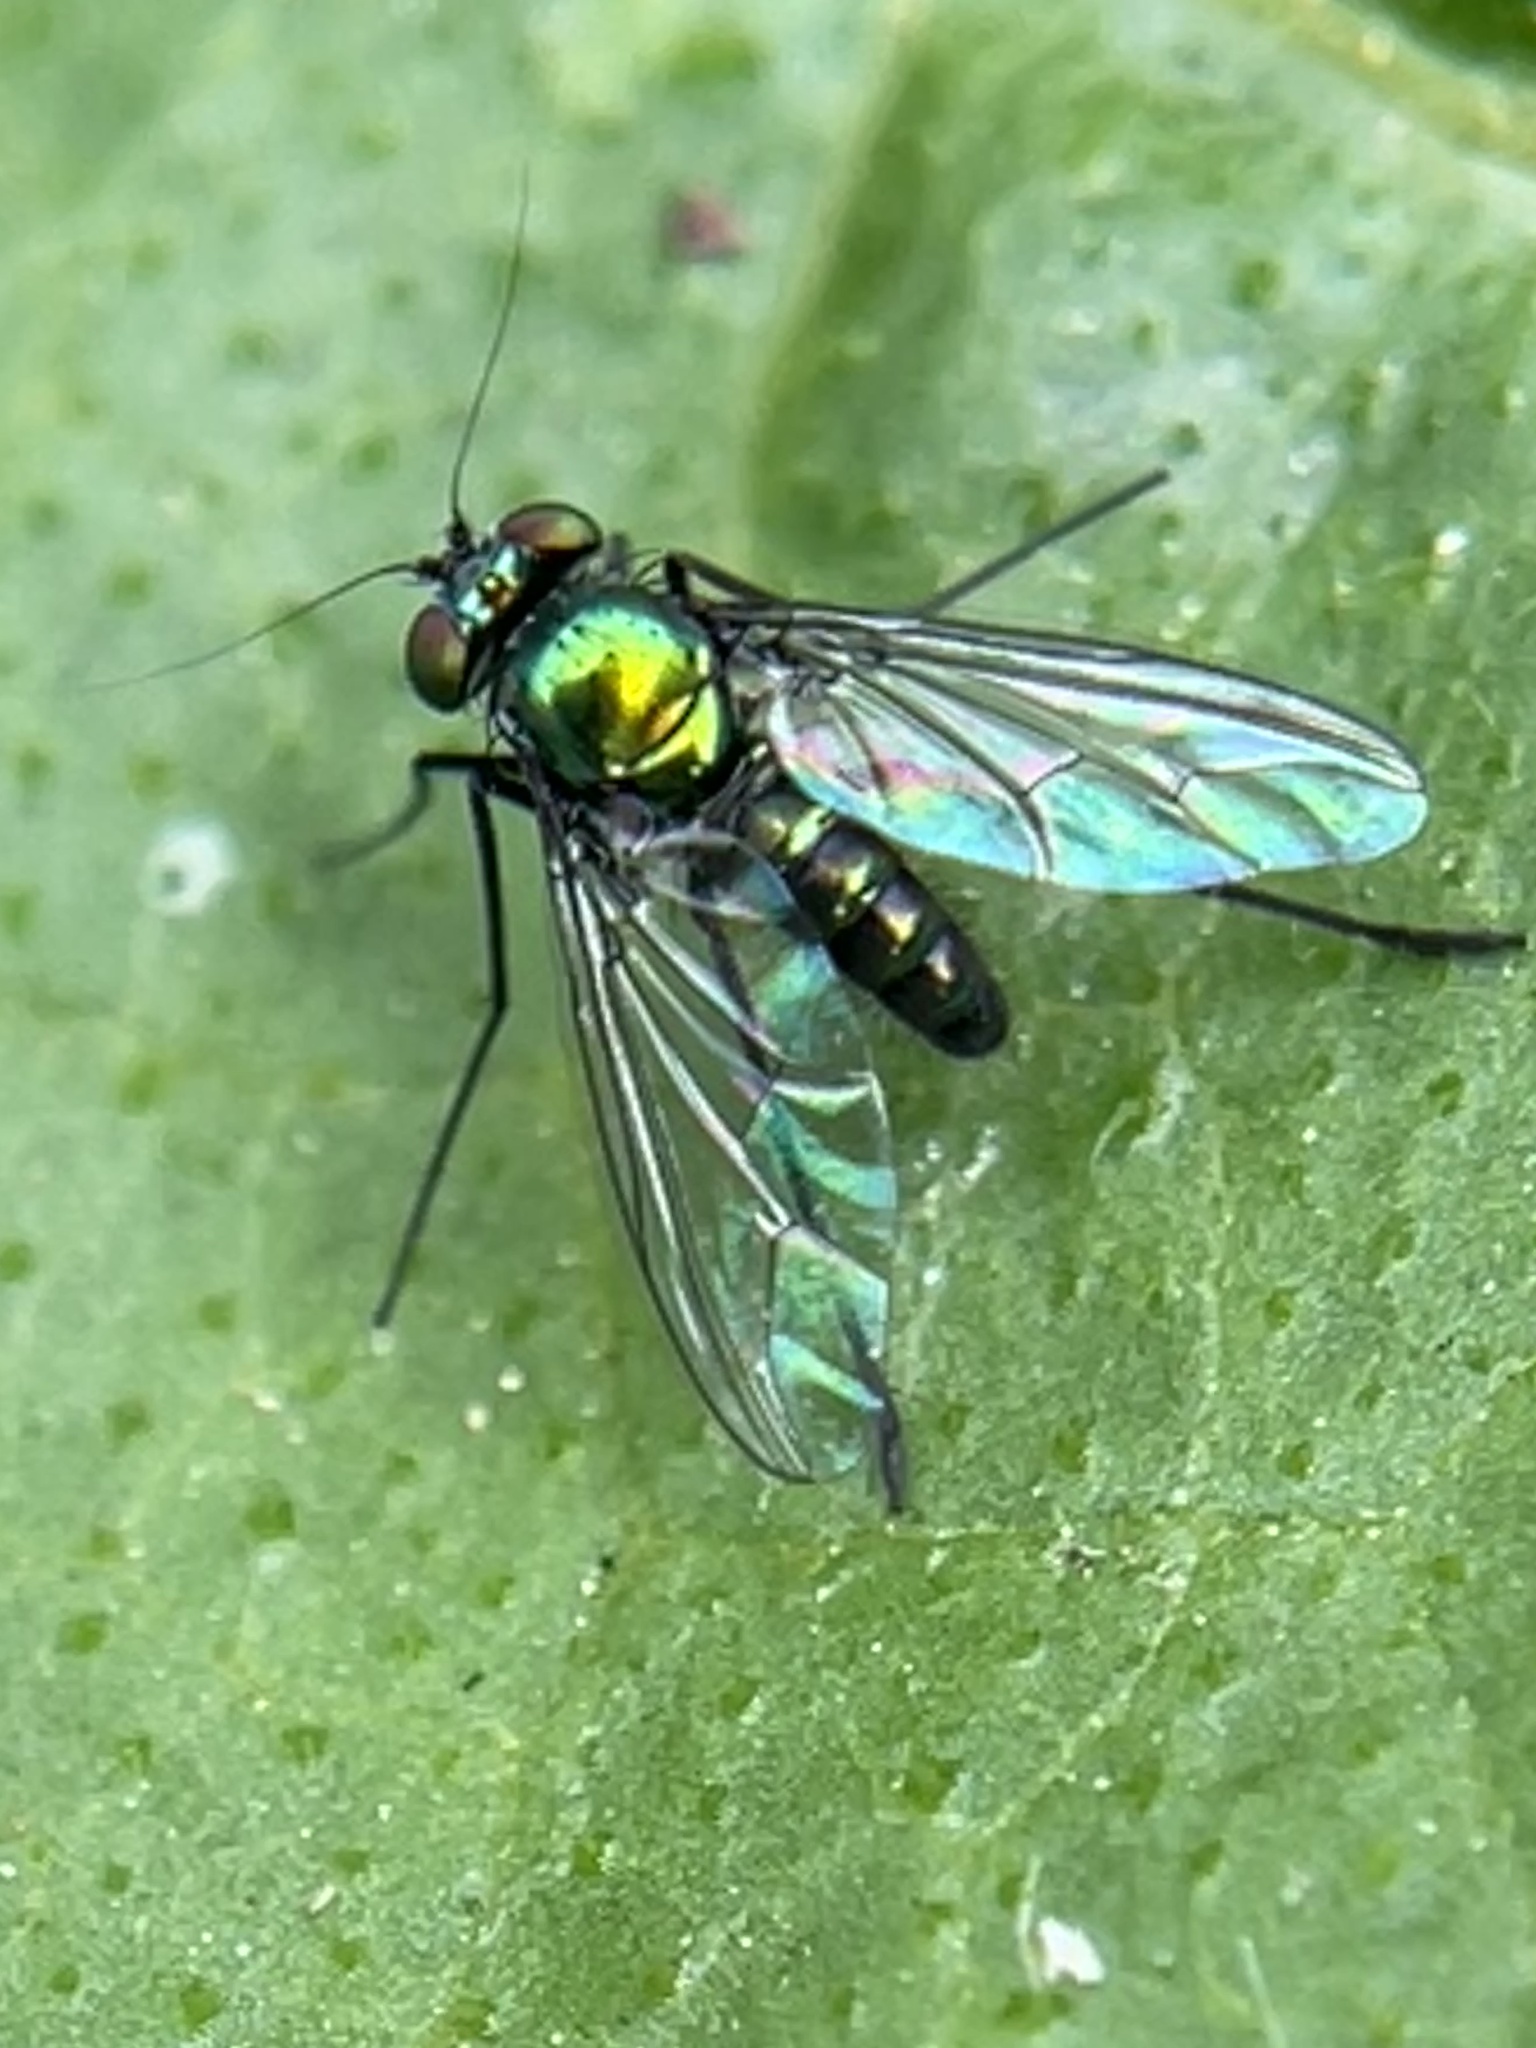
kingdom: Animalia
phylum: Arthropoda
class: Insecta
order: Diptera
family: Dolichopodidae
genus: Parentia
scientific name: Parentia vulgaris
